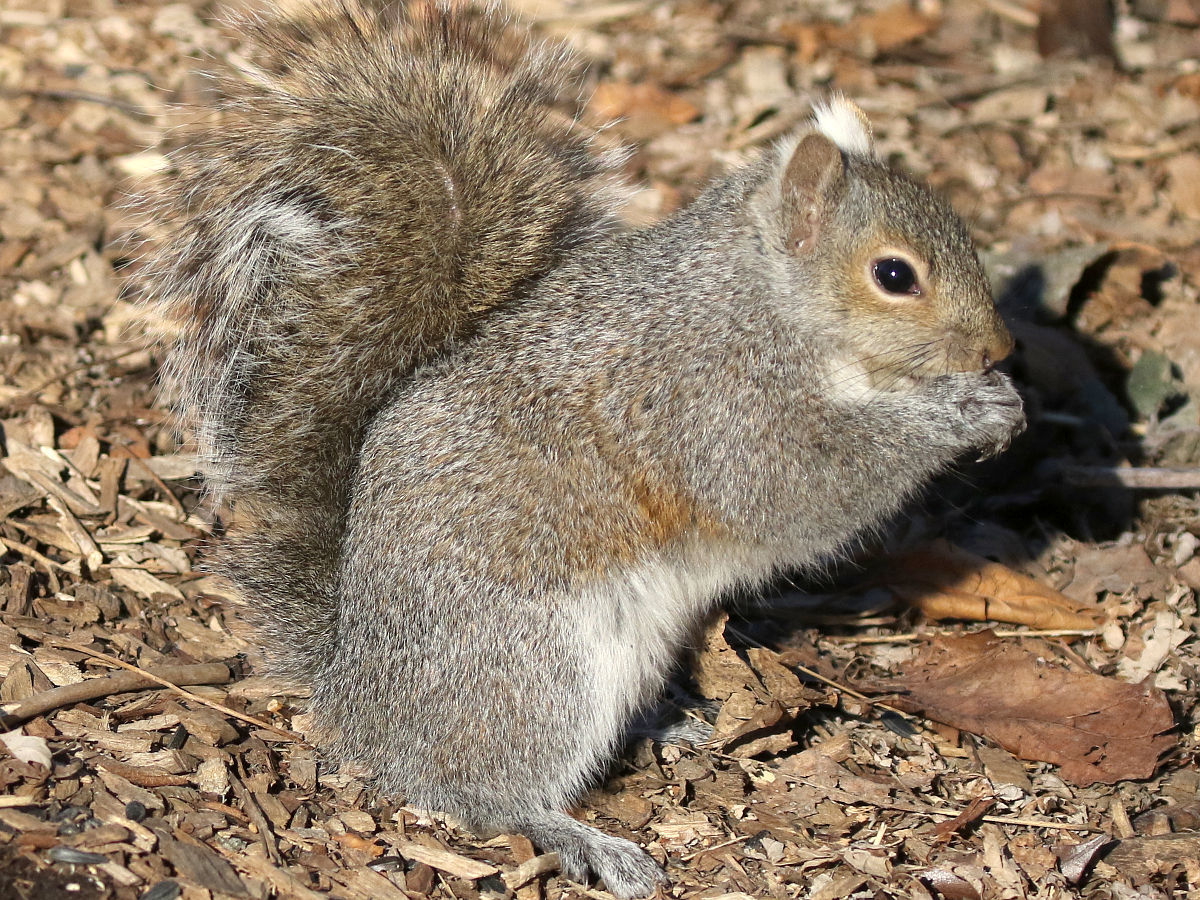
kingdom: Animalia
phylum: Chordata
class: Mammalia
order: Rodentia
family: Sciuridae
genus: Sciurus
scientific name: Sciurus carolinensis
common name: Eastern gray squirrel
